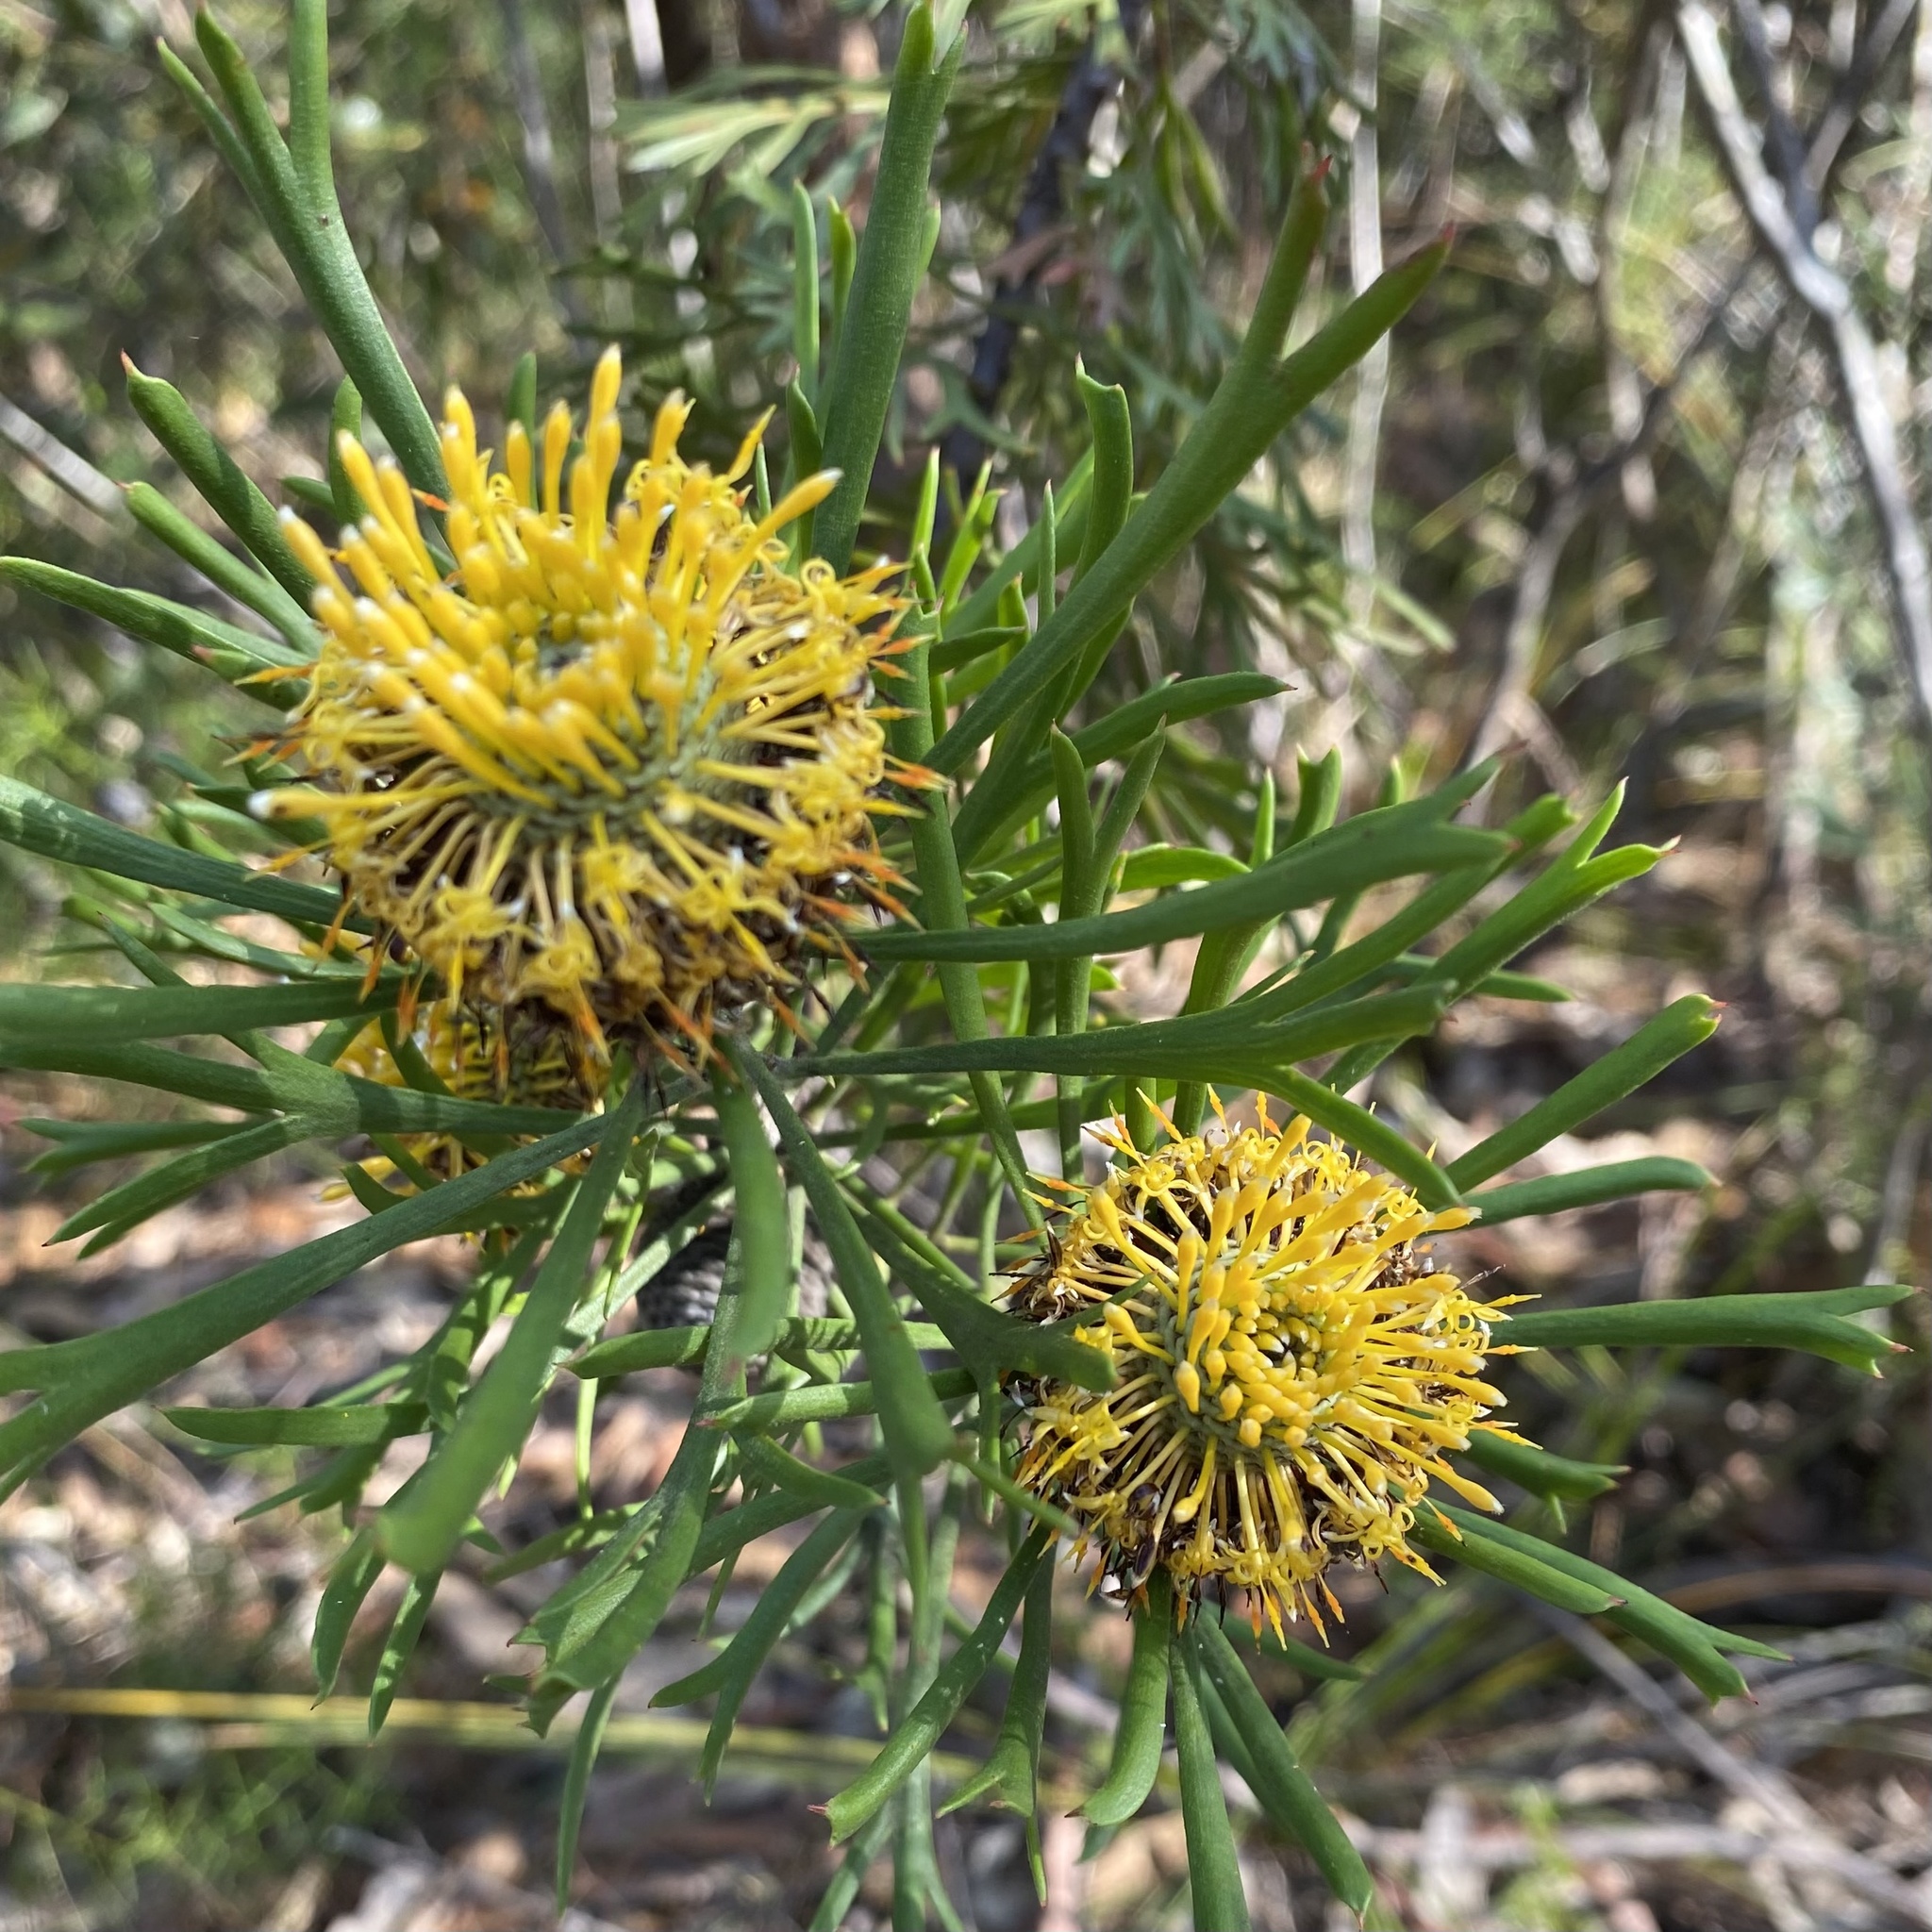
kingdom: Plantae
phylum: Tracheophyta
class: Magnoliopsida
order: Proteales
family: Proteaceae
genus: Isopogon
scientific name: Isopogon anemonifolius
